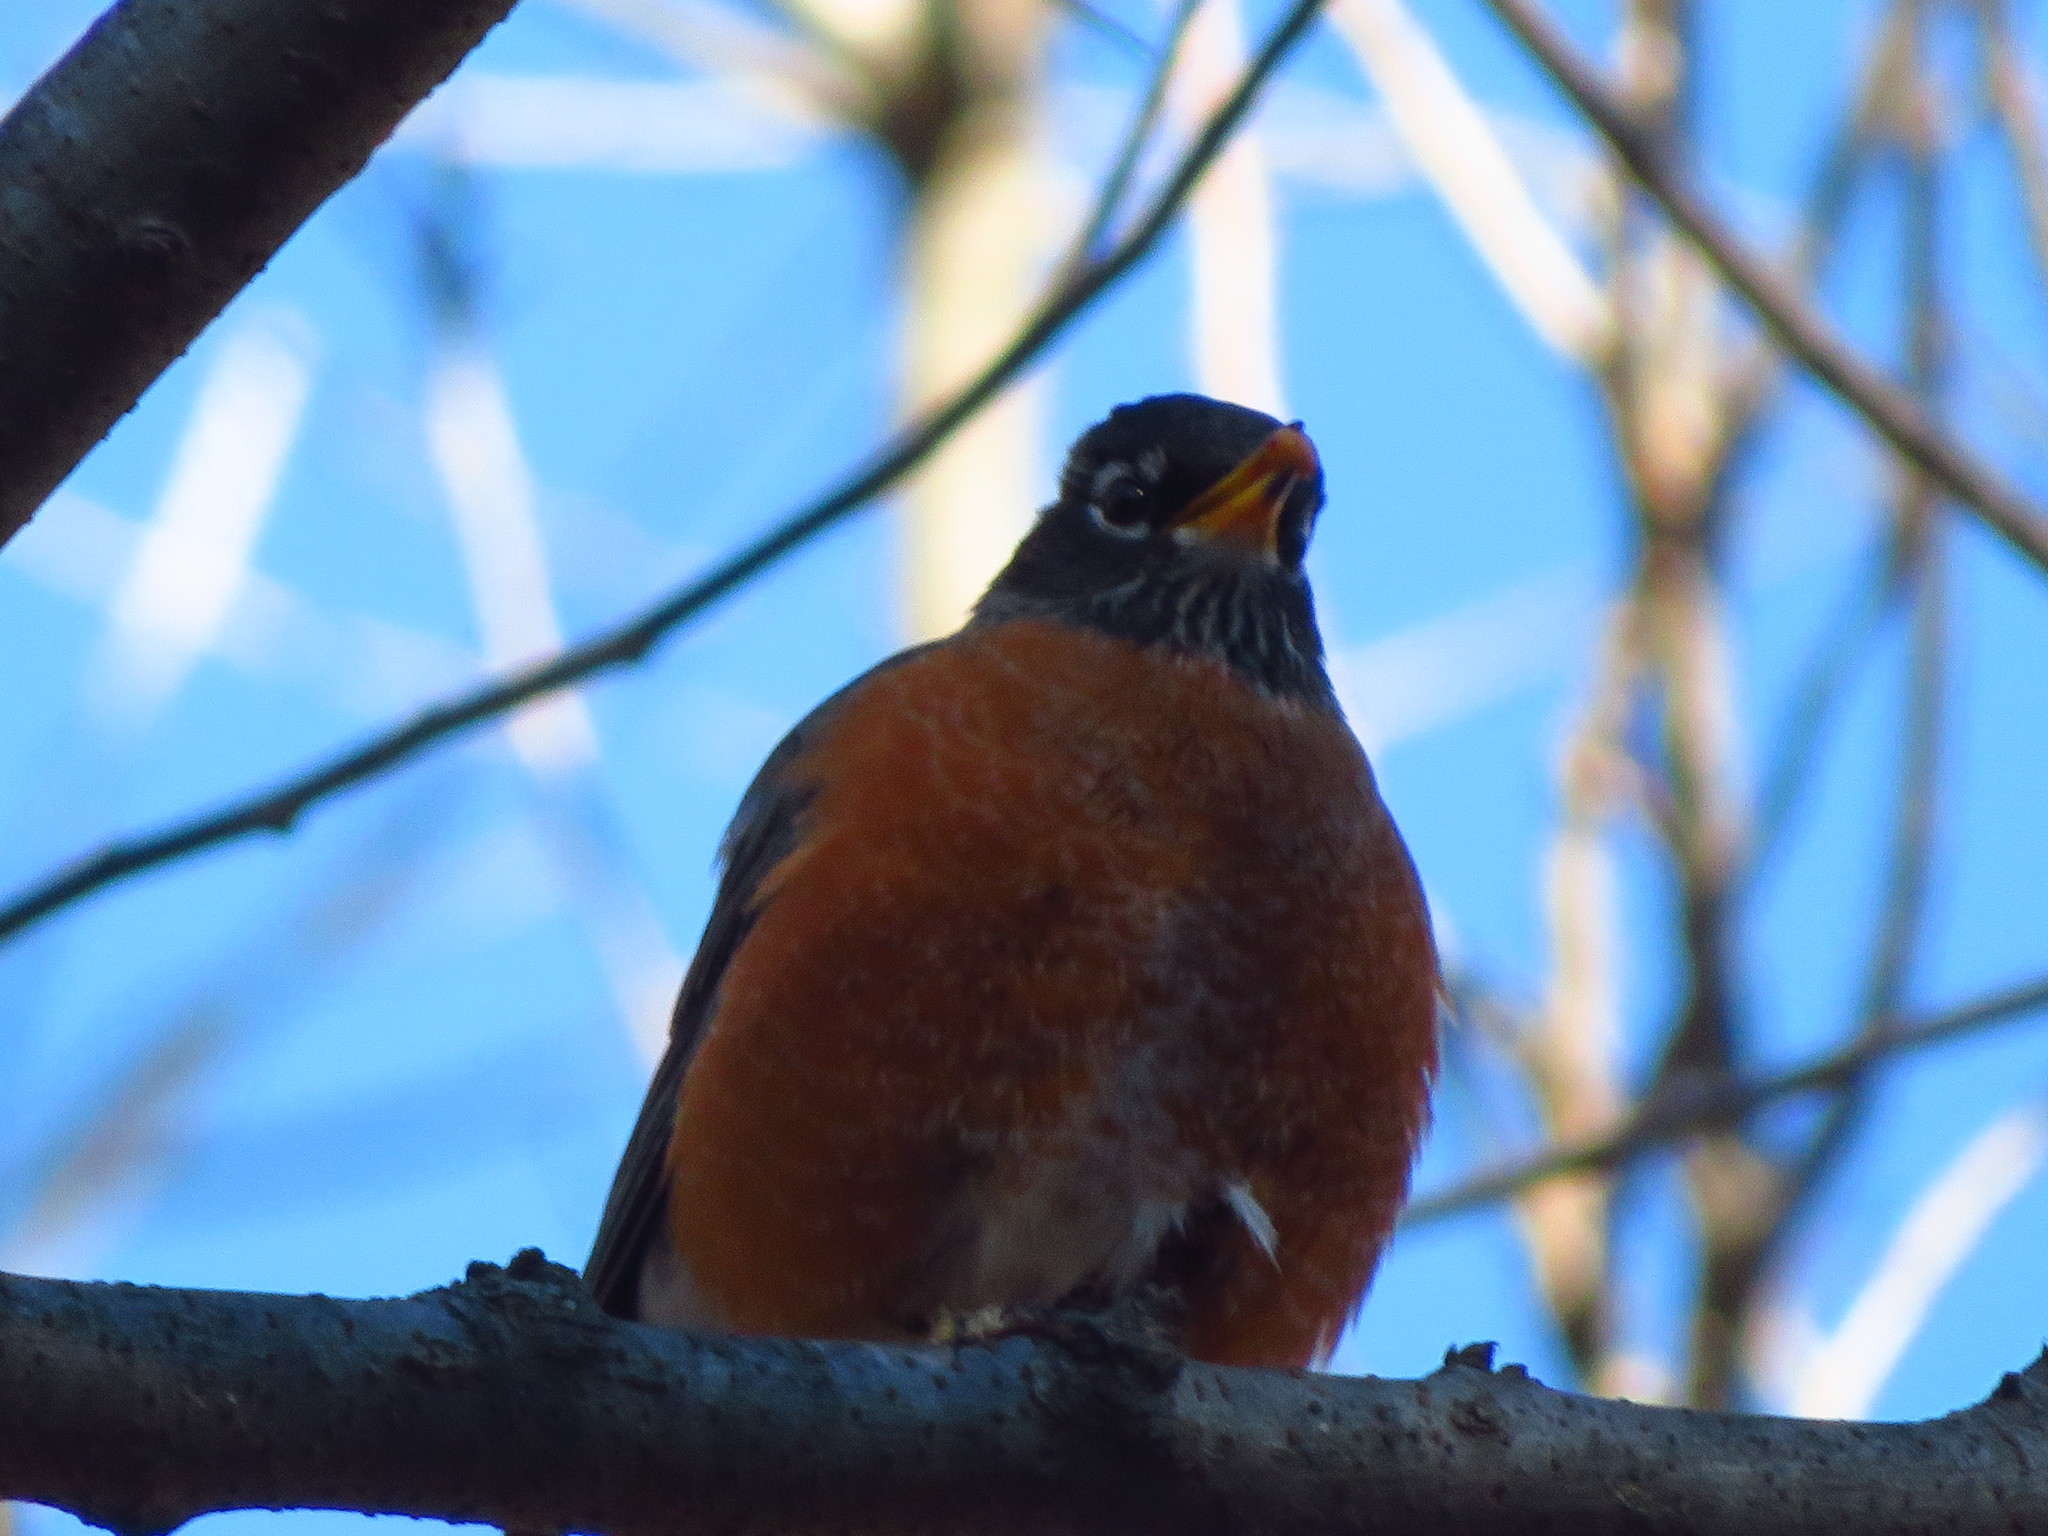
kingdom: Animalia
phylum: Chordata
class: Aves
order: Passeriformes
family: Turdidae
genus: Turdus
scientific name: Turdus migratorius
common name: American robin
